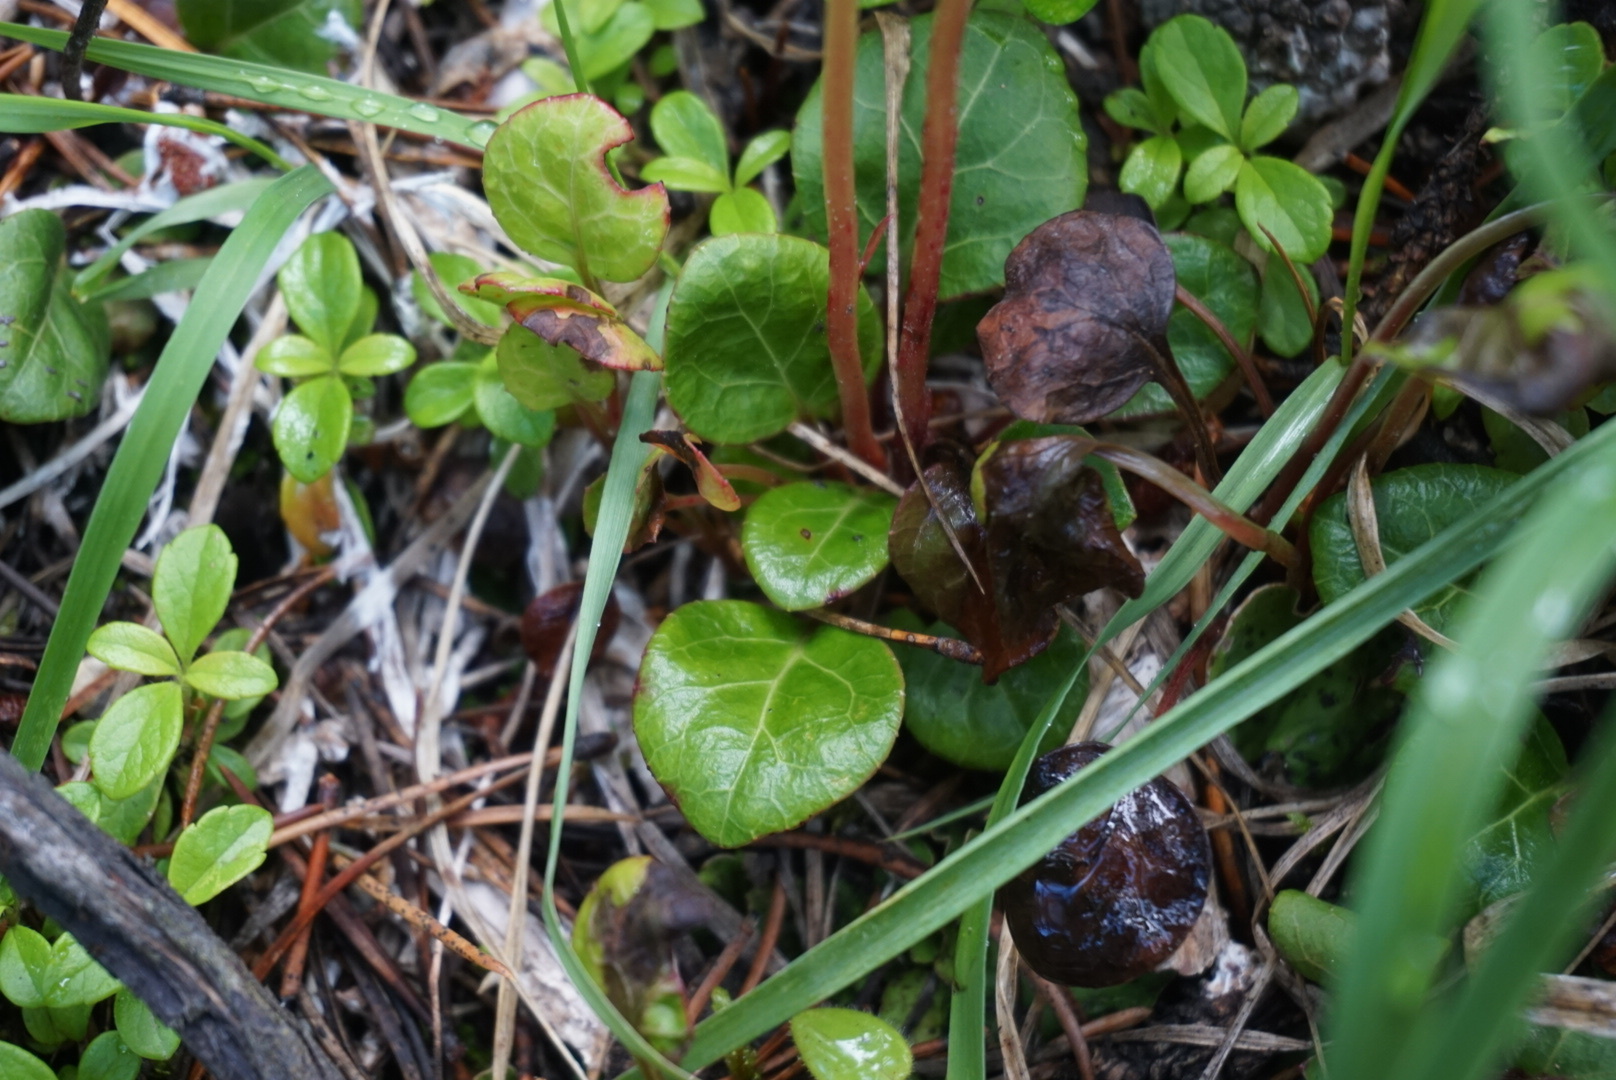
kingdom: Plantae
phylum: Tracheophyta
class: Magnoliopsida
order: Ericales
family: Ericaceae
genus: Pyrola
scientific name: Pyrola chlorantha
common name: Green wintergreen
